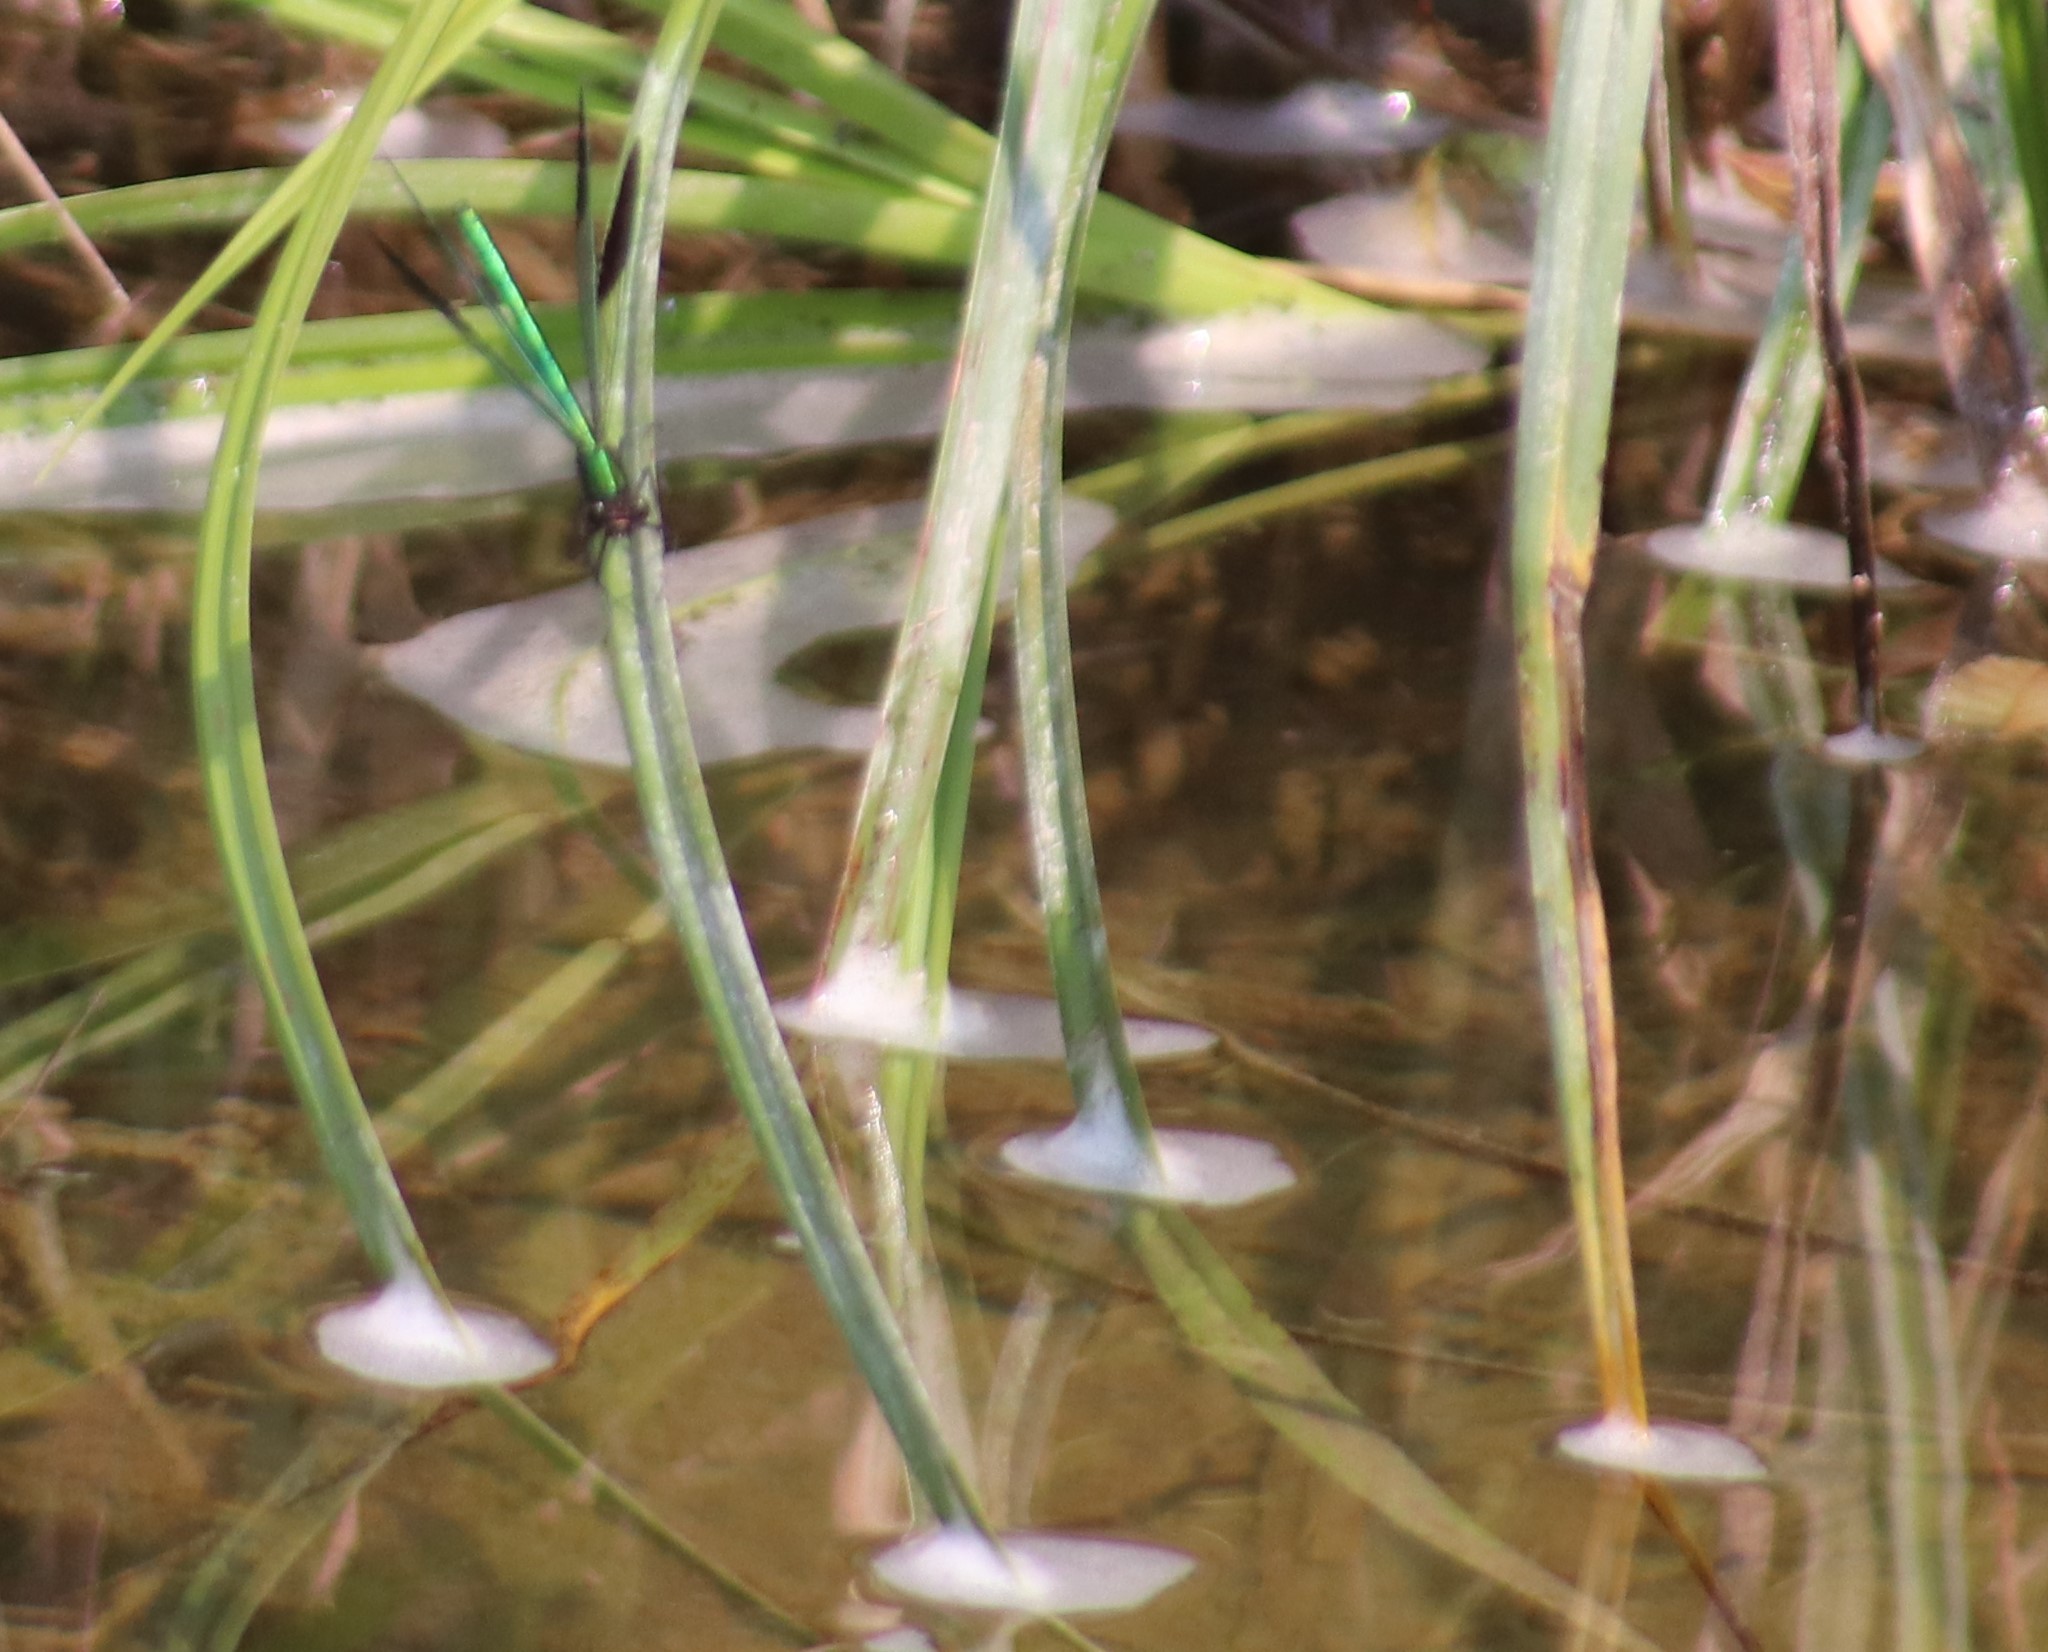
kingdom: Animalia
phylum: Arthropoda
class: Insecta
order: Odonata
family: Calopterygidae
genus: Calopteryx
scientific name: Calopteryx aequabilis
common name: River jewelwing
